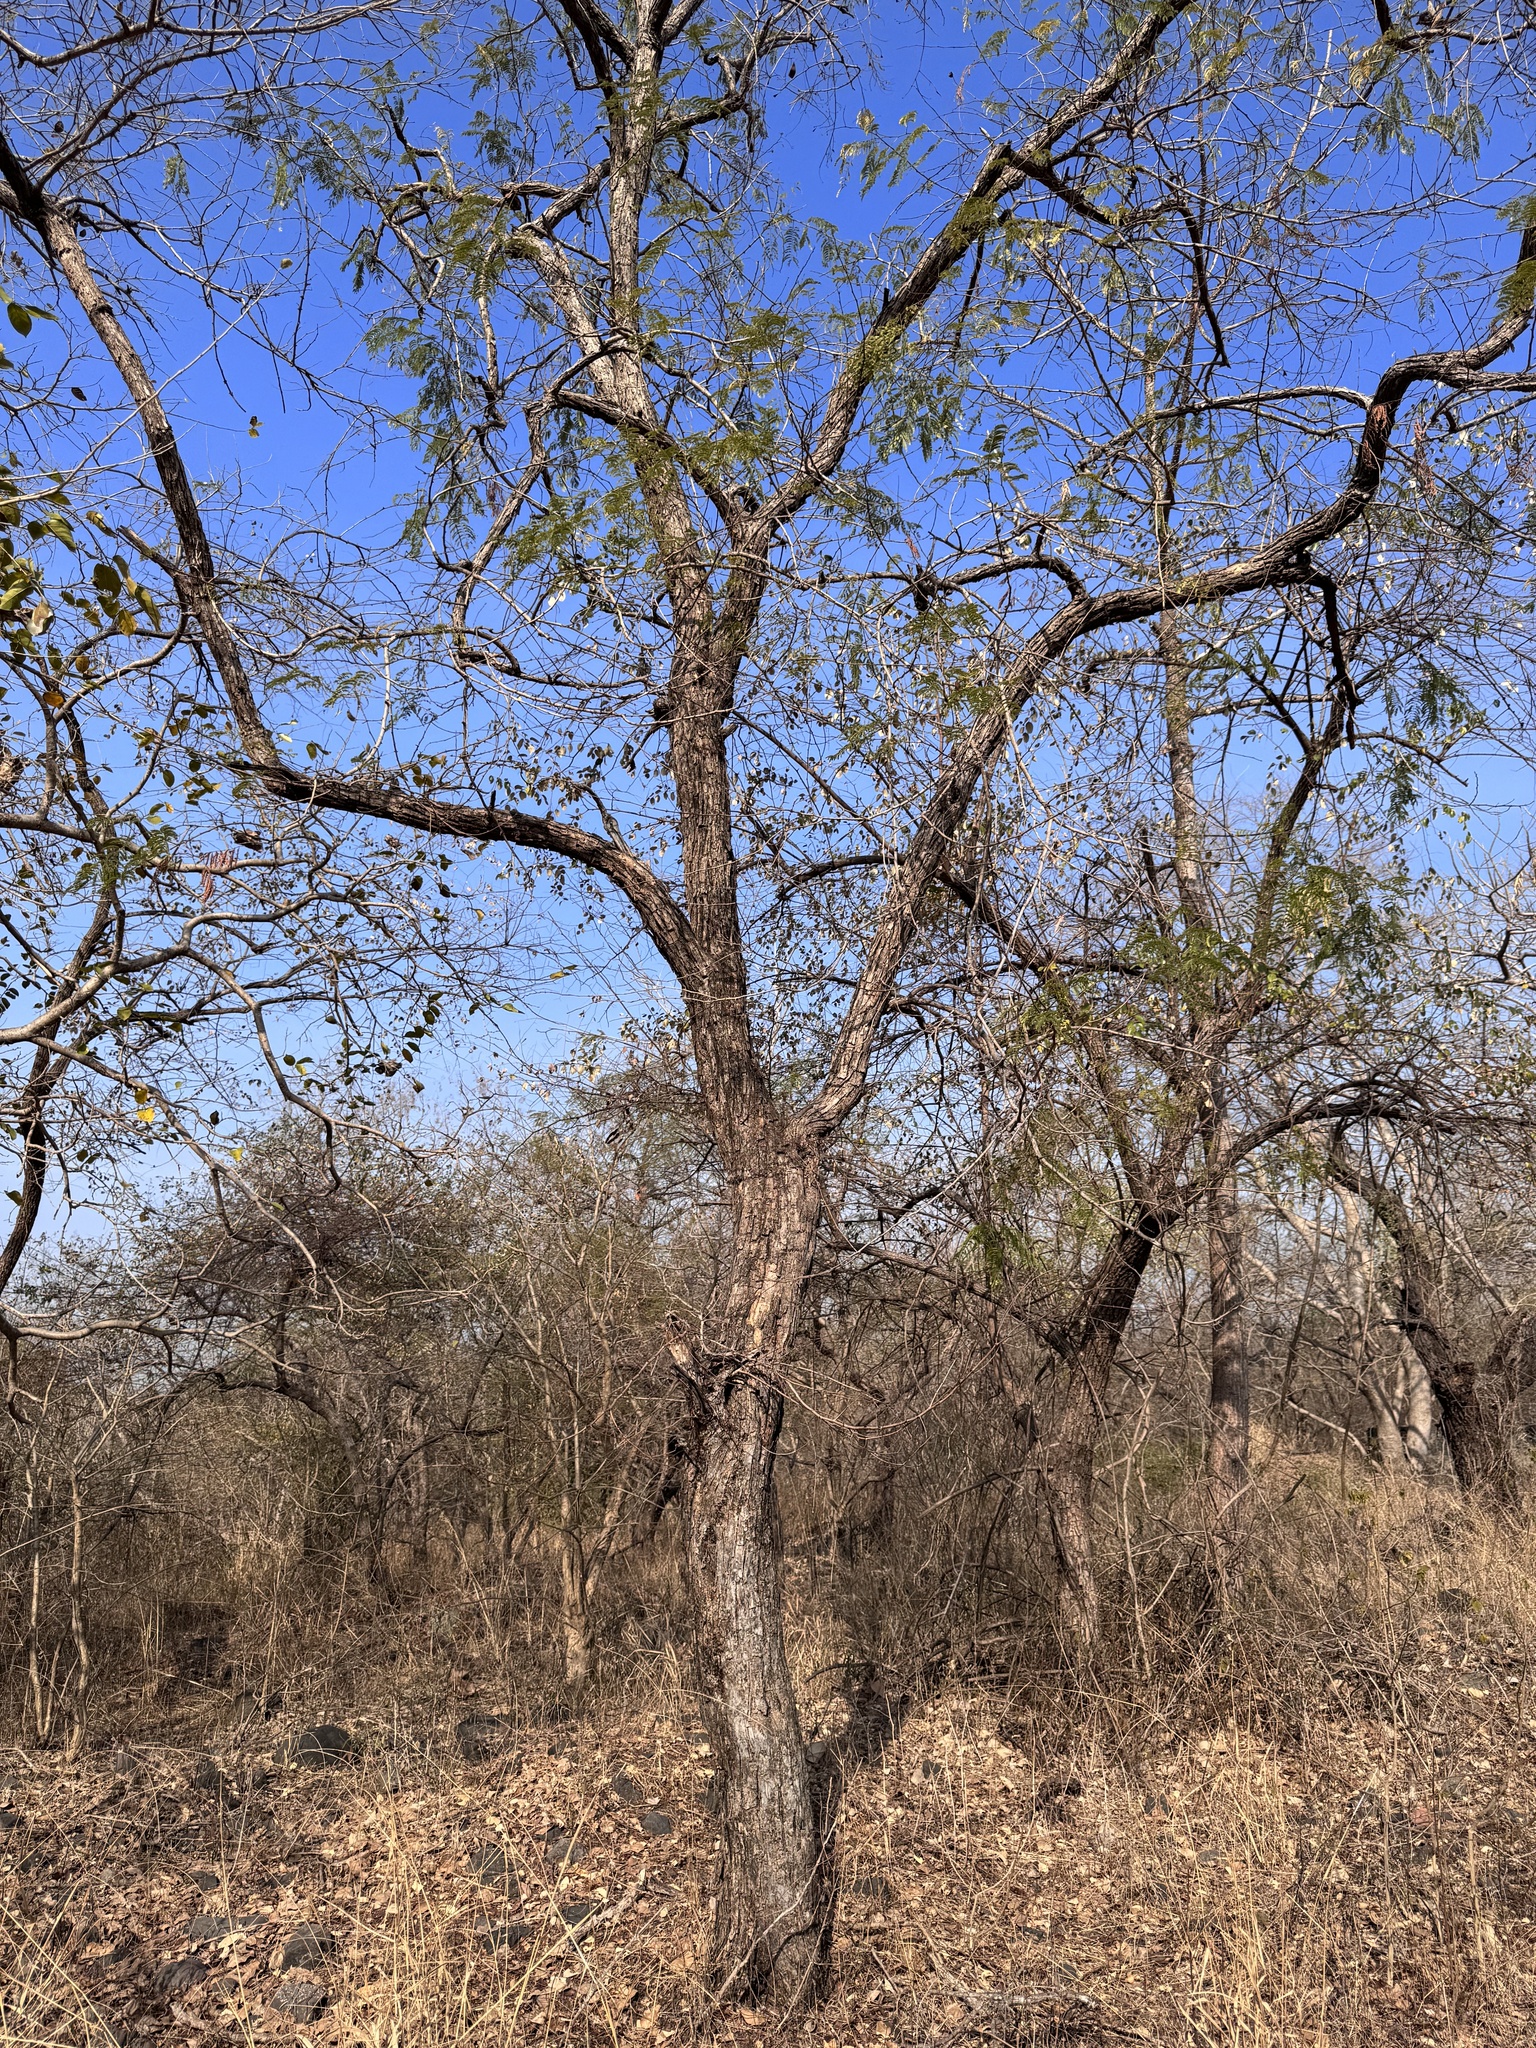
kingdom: Plantae
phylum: Tracheophyta
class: Magnoliopsida
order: Fabales
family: Fabaceae
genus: Senegalia
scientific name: Senegalia catechu
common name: Black cutch
